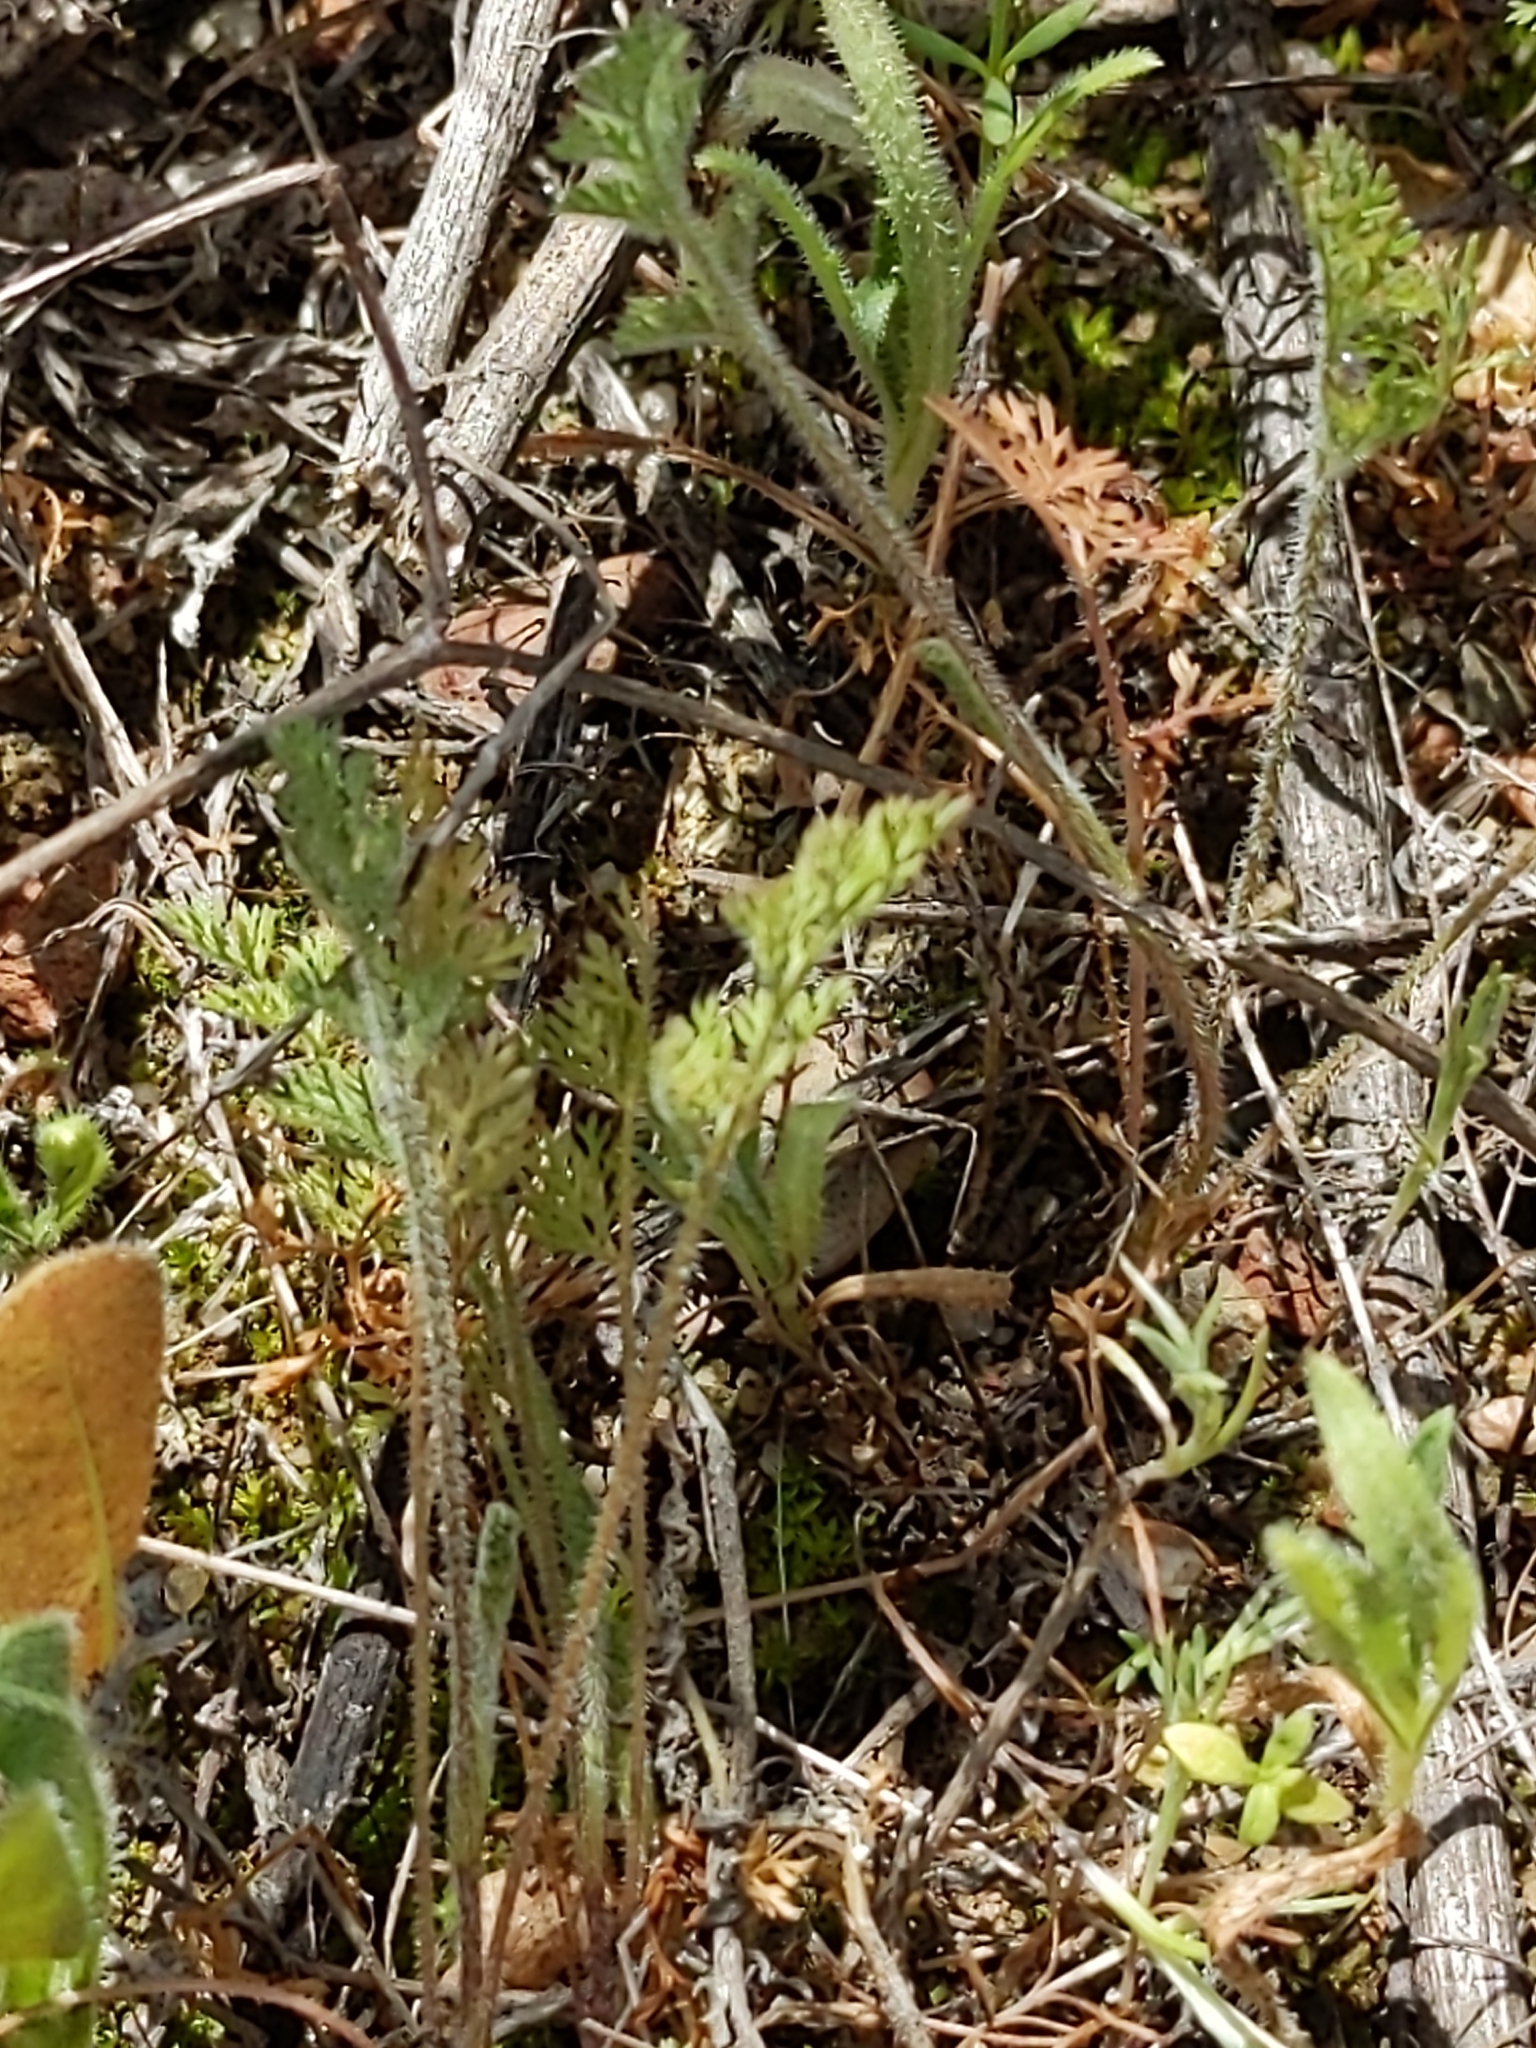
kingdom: Plantae
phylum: Tracheophyta
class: Magnoliopsida
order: Apiales
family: Apiaceae
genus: Daucus
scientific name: Daucus pusillus
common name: Southwest wild carrot
